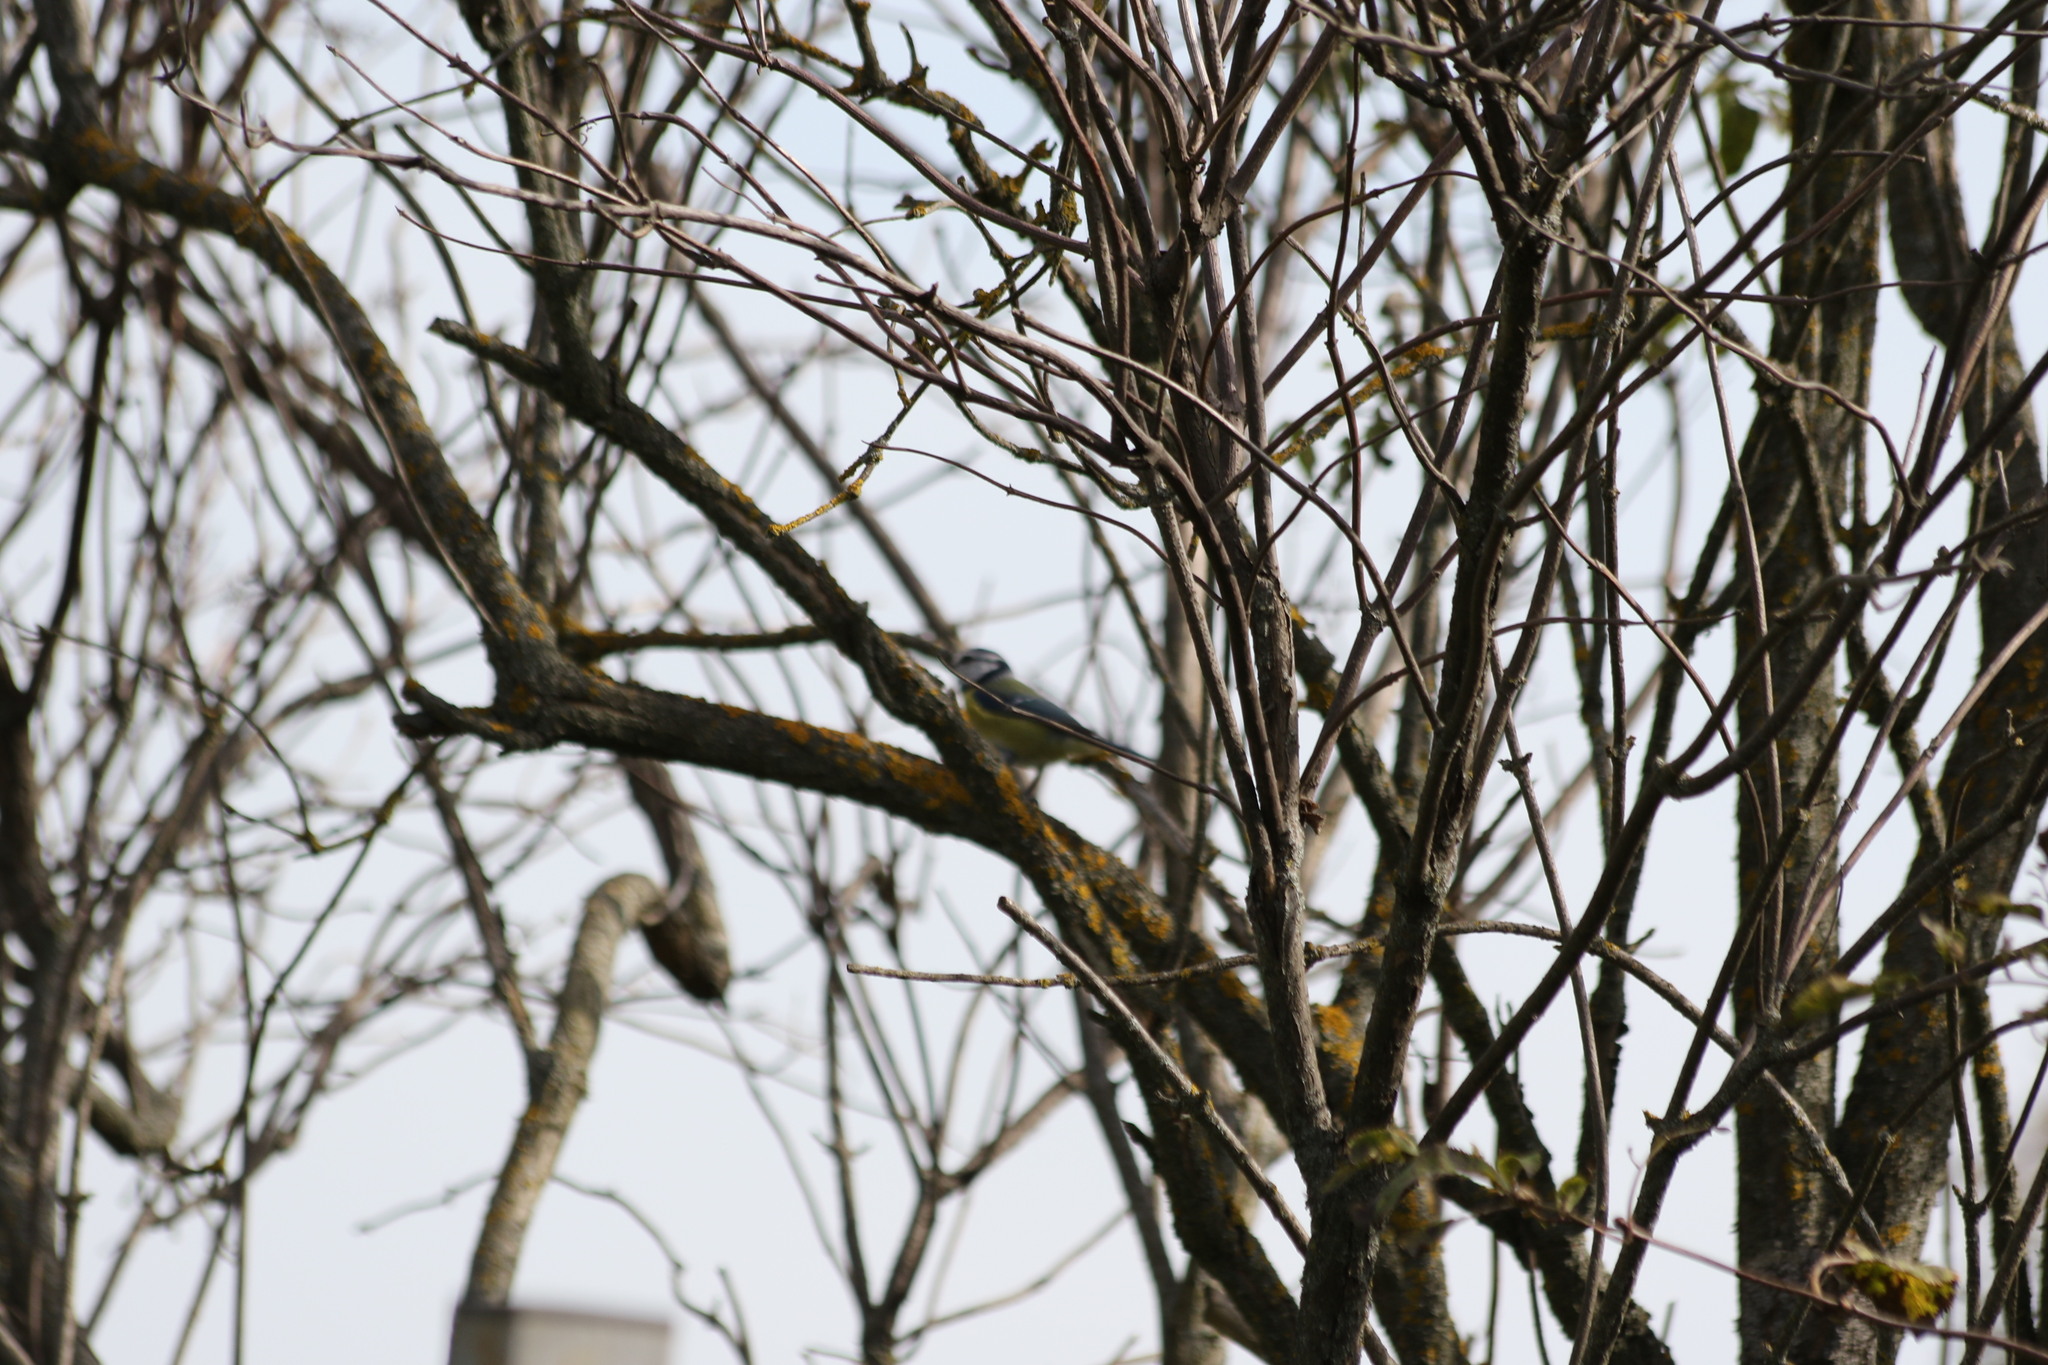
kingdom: Animalia
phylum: Chordata
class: Aves
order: Passeriformes
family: Paridae
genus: Cyanistes
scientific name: Cyanistes caeruleus
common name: Eurasian blue tit
